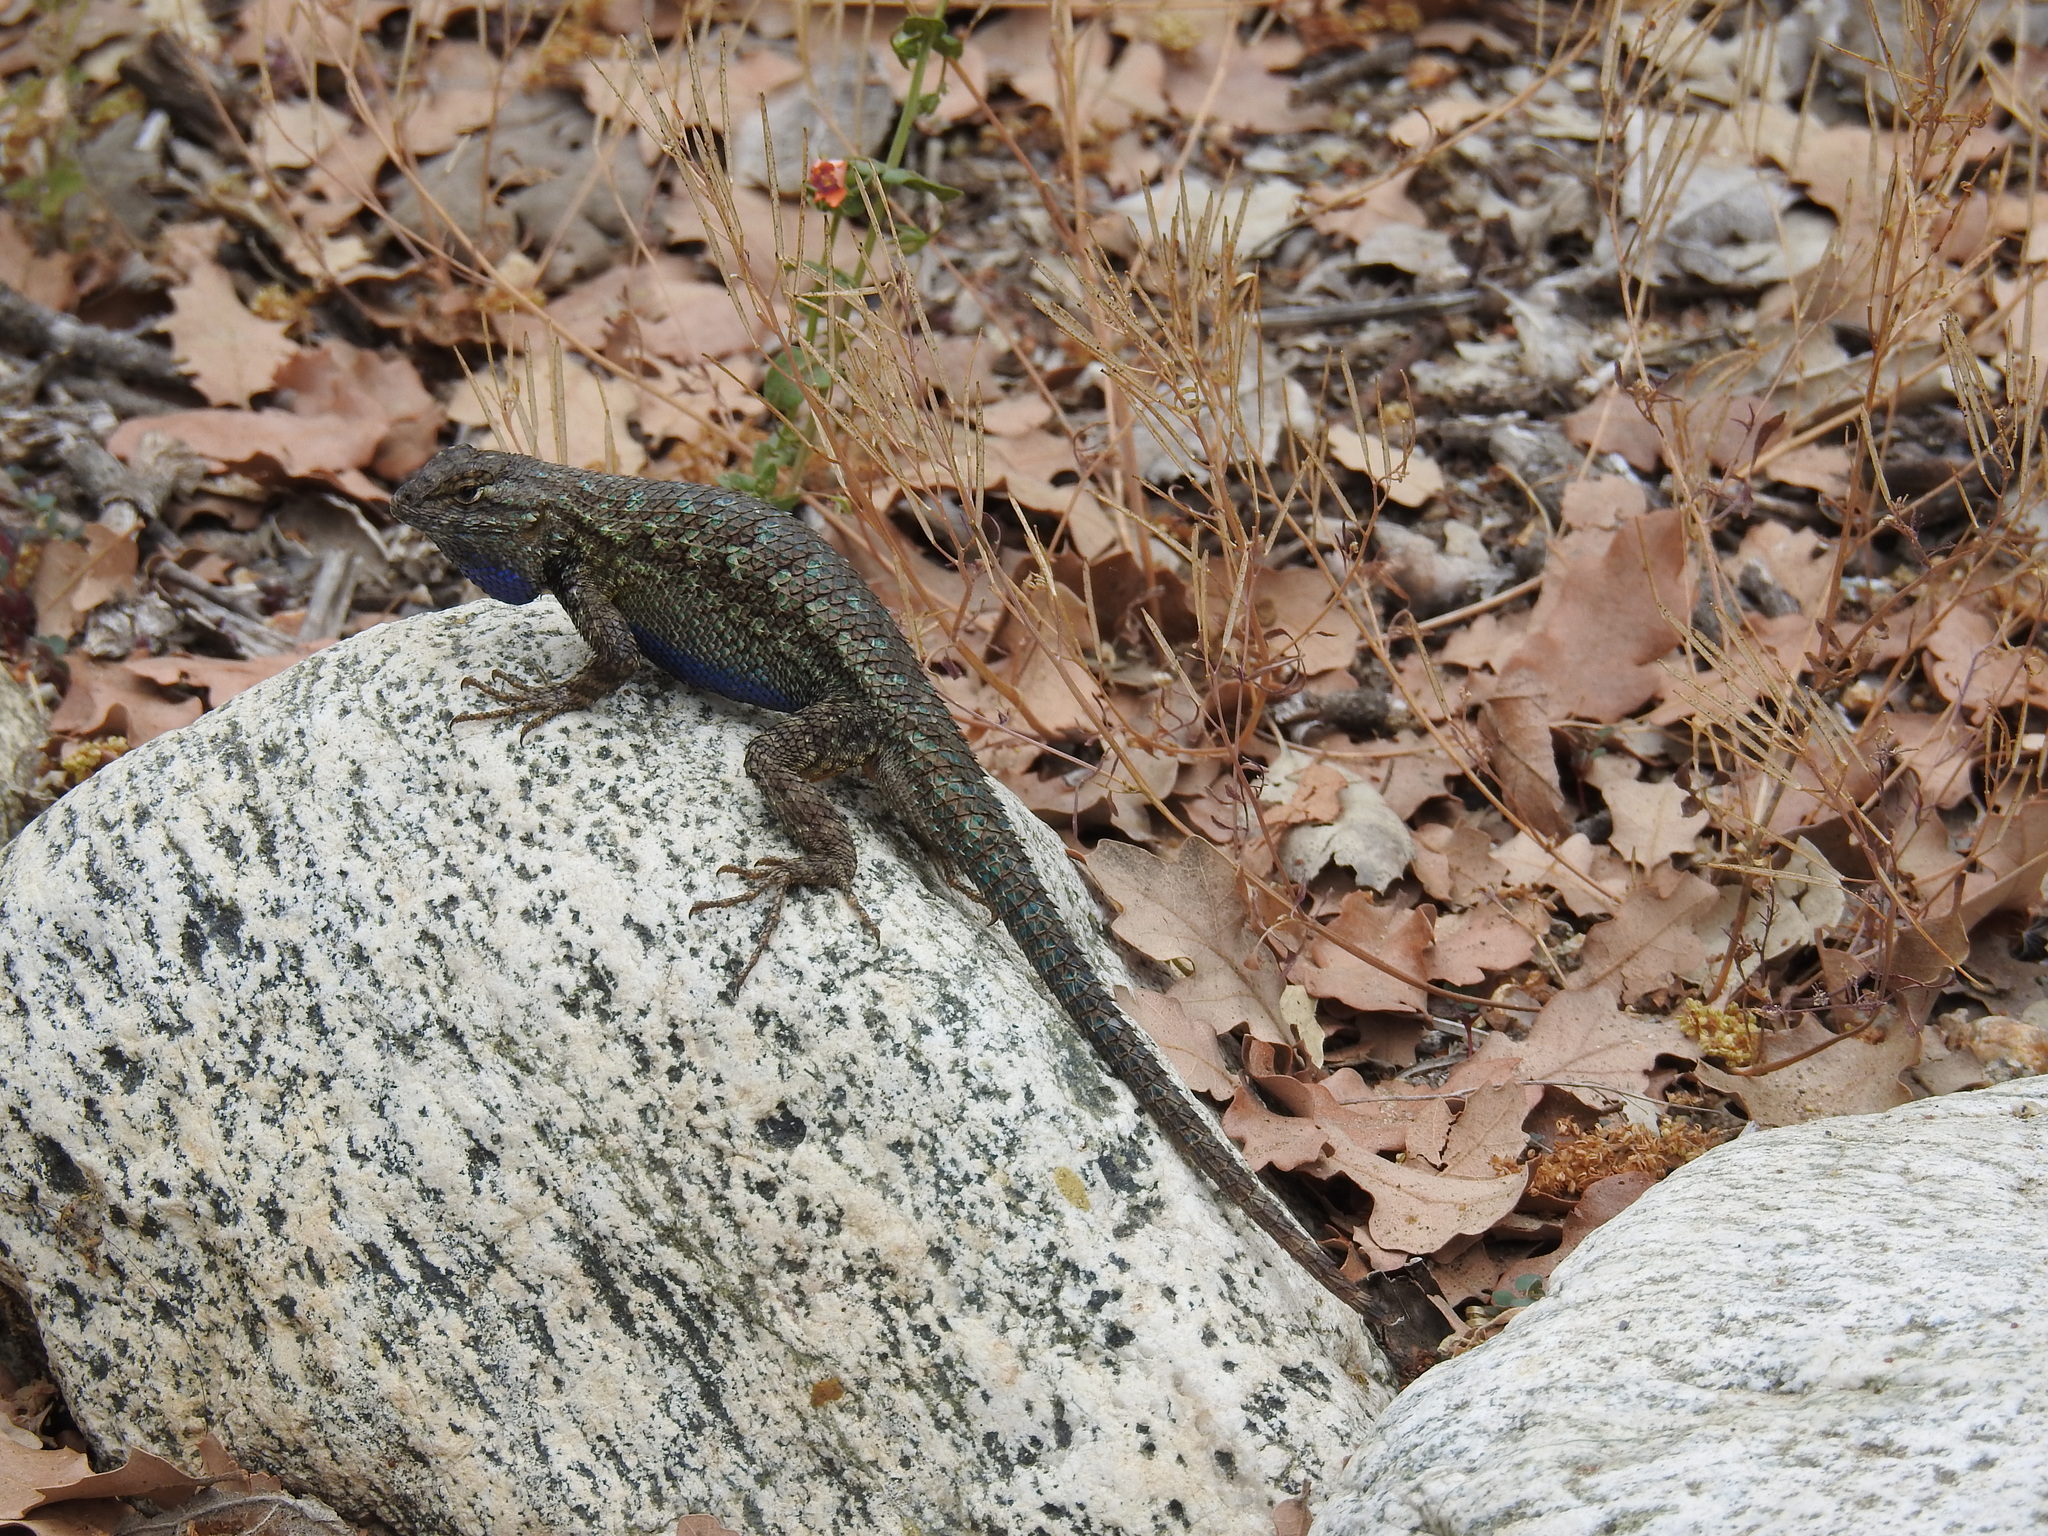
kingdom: Animalia
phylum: Chordata
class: Squamata
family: Phrynosomatidae
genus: Sceloporus
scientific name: Sceloporus occidentalis
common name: Western fence lizard
